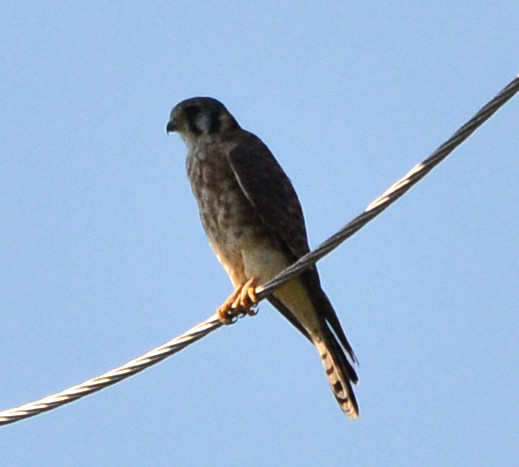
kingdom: Animalia
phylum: Chordata
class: Aves
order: Falconiformes
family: Falconidae
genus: Falco
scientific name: Falco sparverius
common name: American kestrel
